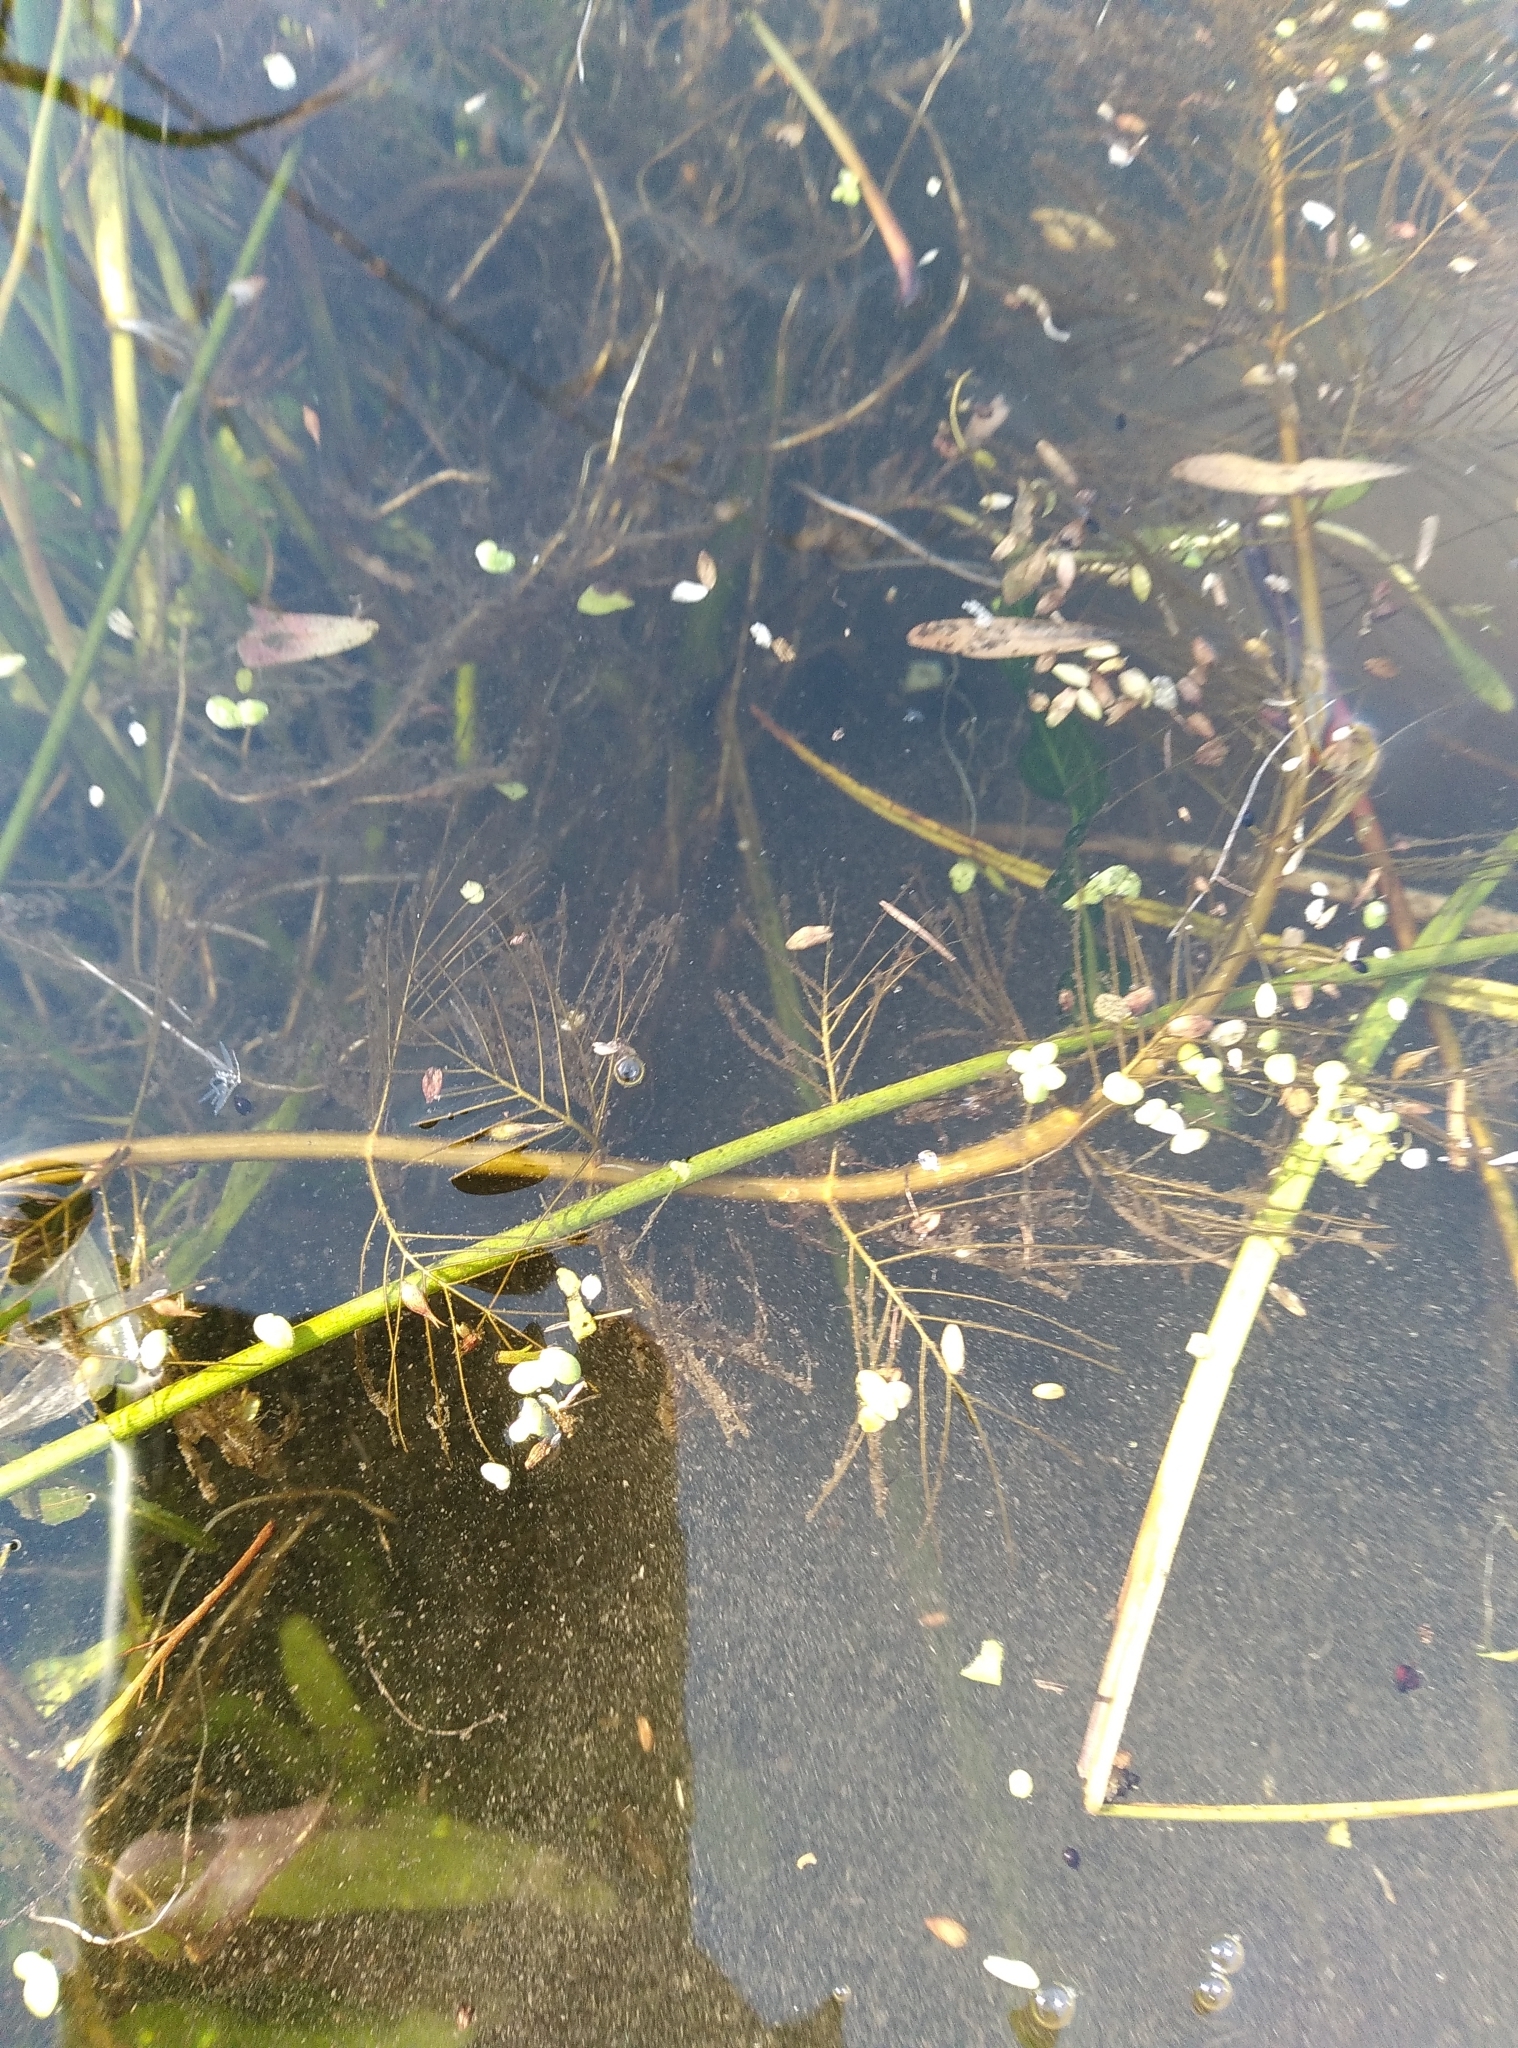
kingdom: Plantae
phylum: Tracheophyta
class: Magnoliopsida
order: Saxifragales
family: Haloragaceae
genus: Myriophyllum
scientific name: Myriophyllum propinquum
